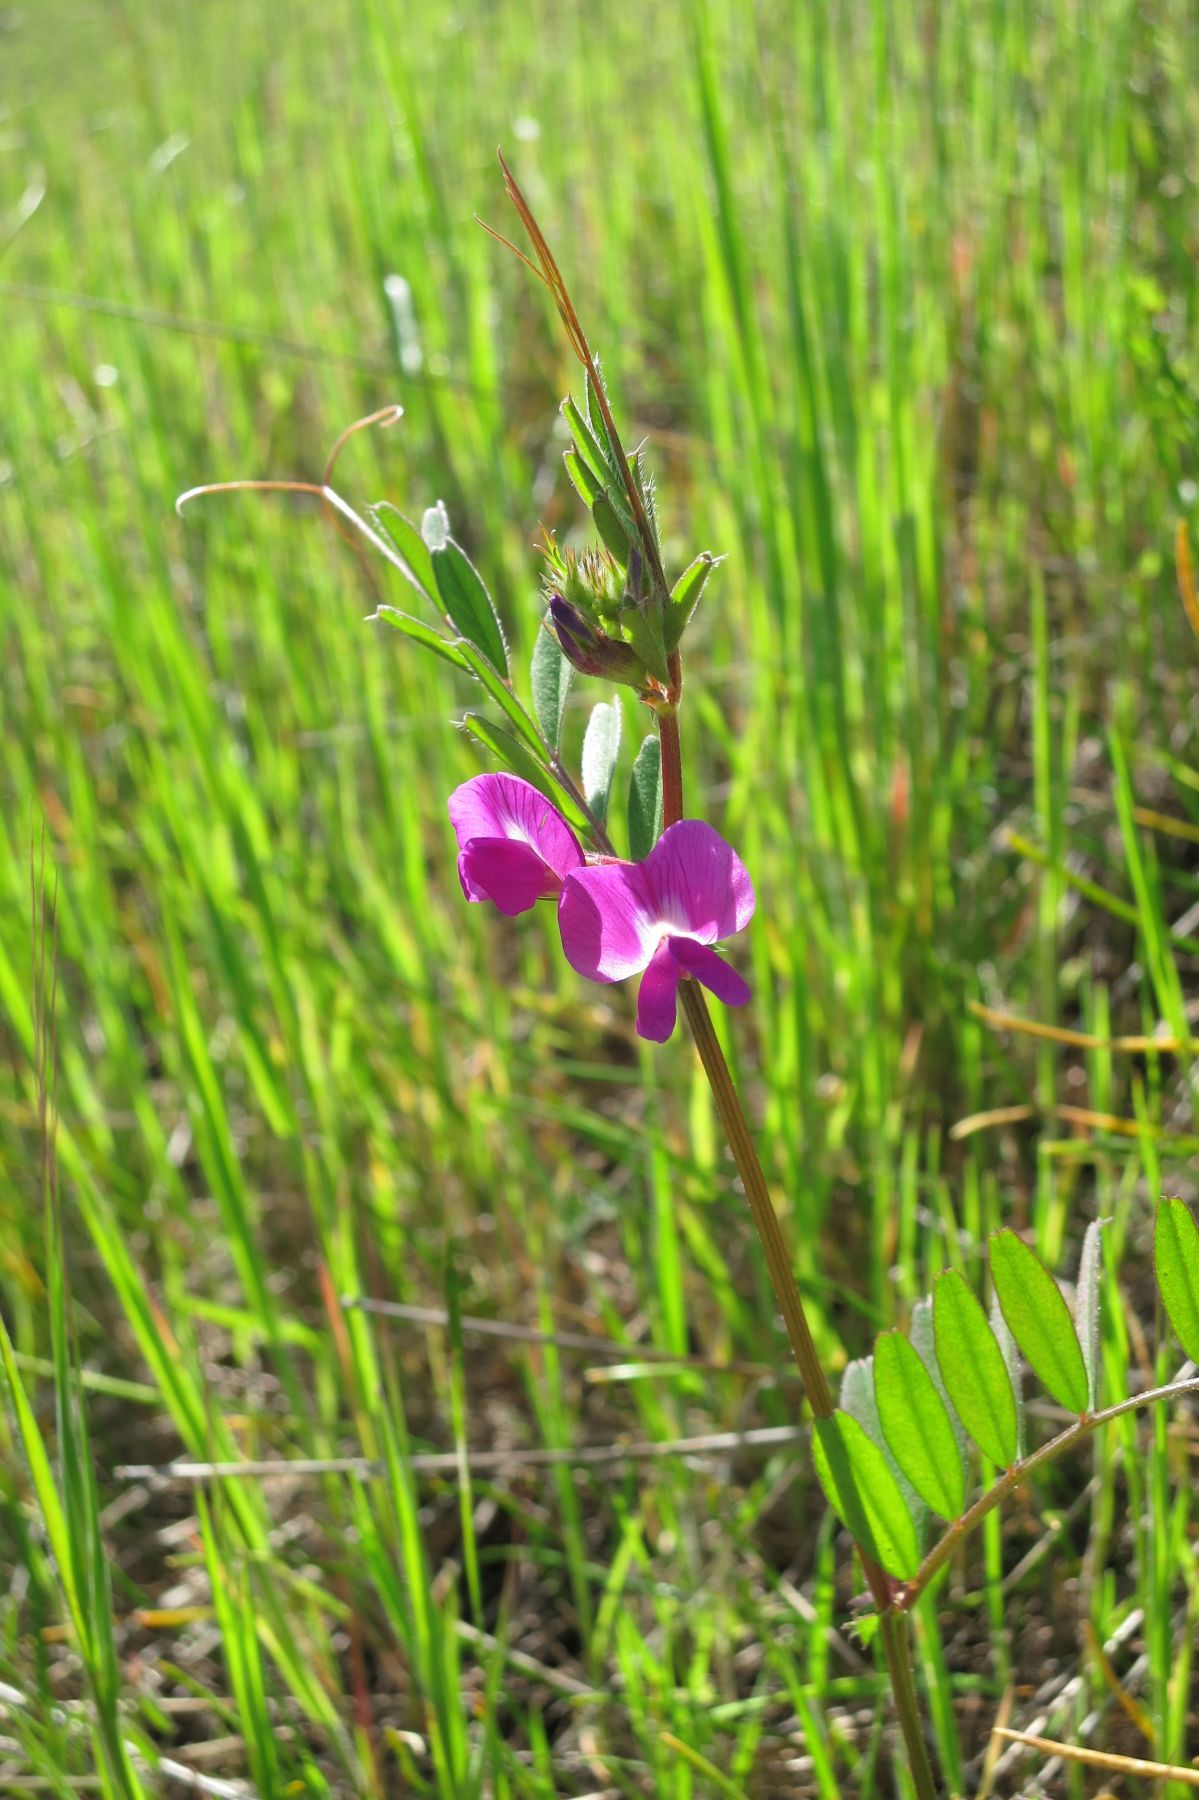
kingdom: Plantae
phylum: Tracheophyta
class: Magnoliopsida
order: Fabales
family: Fabaceae
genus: Vicia
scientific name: Vicia sativa
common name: Garden vetch
